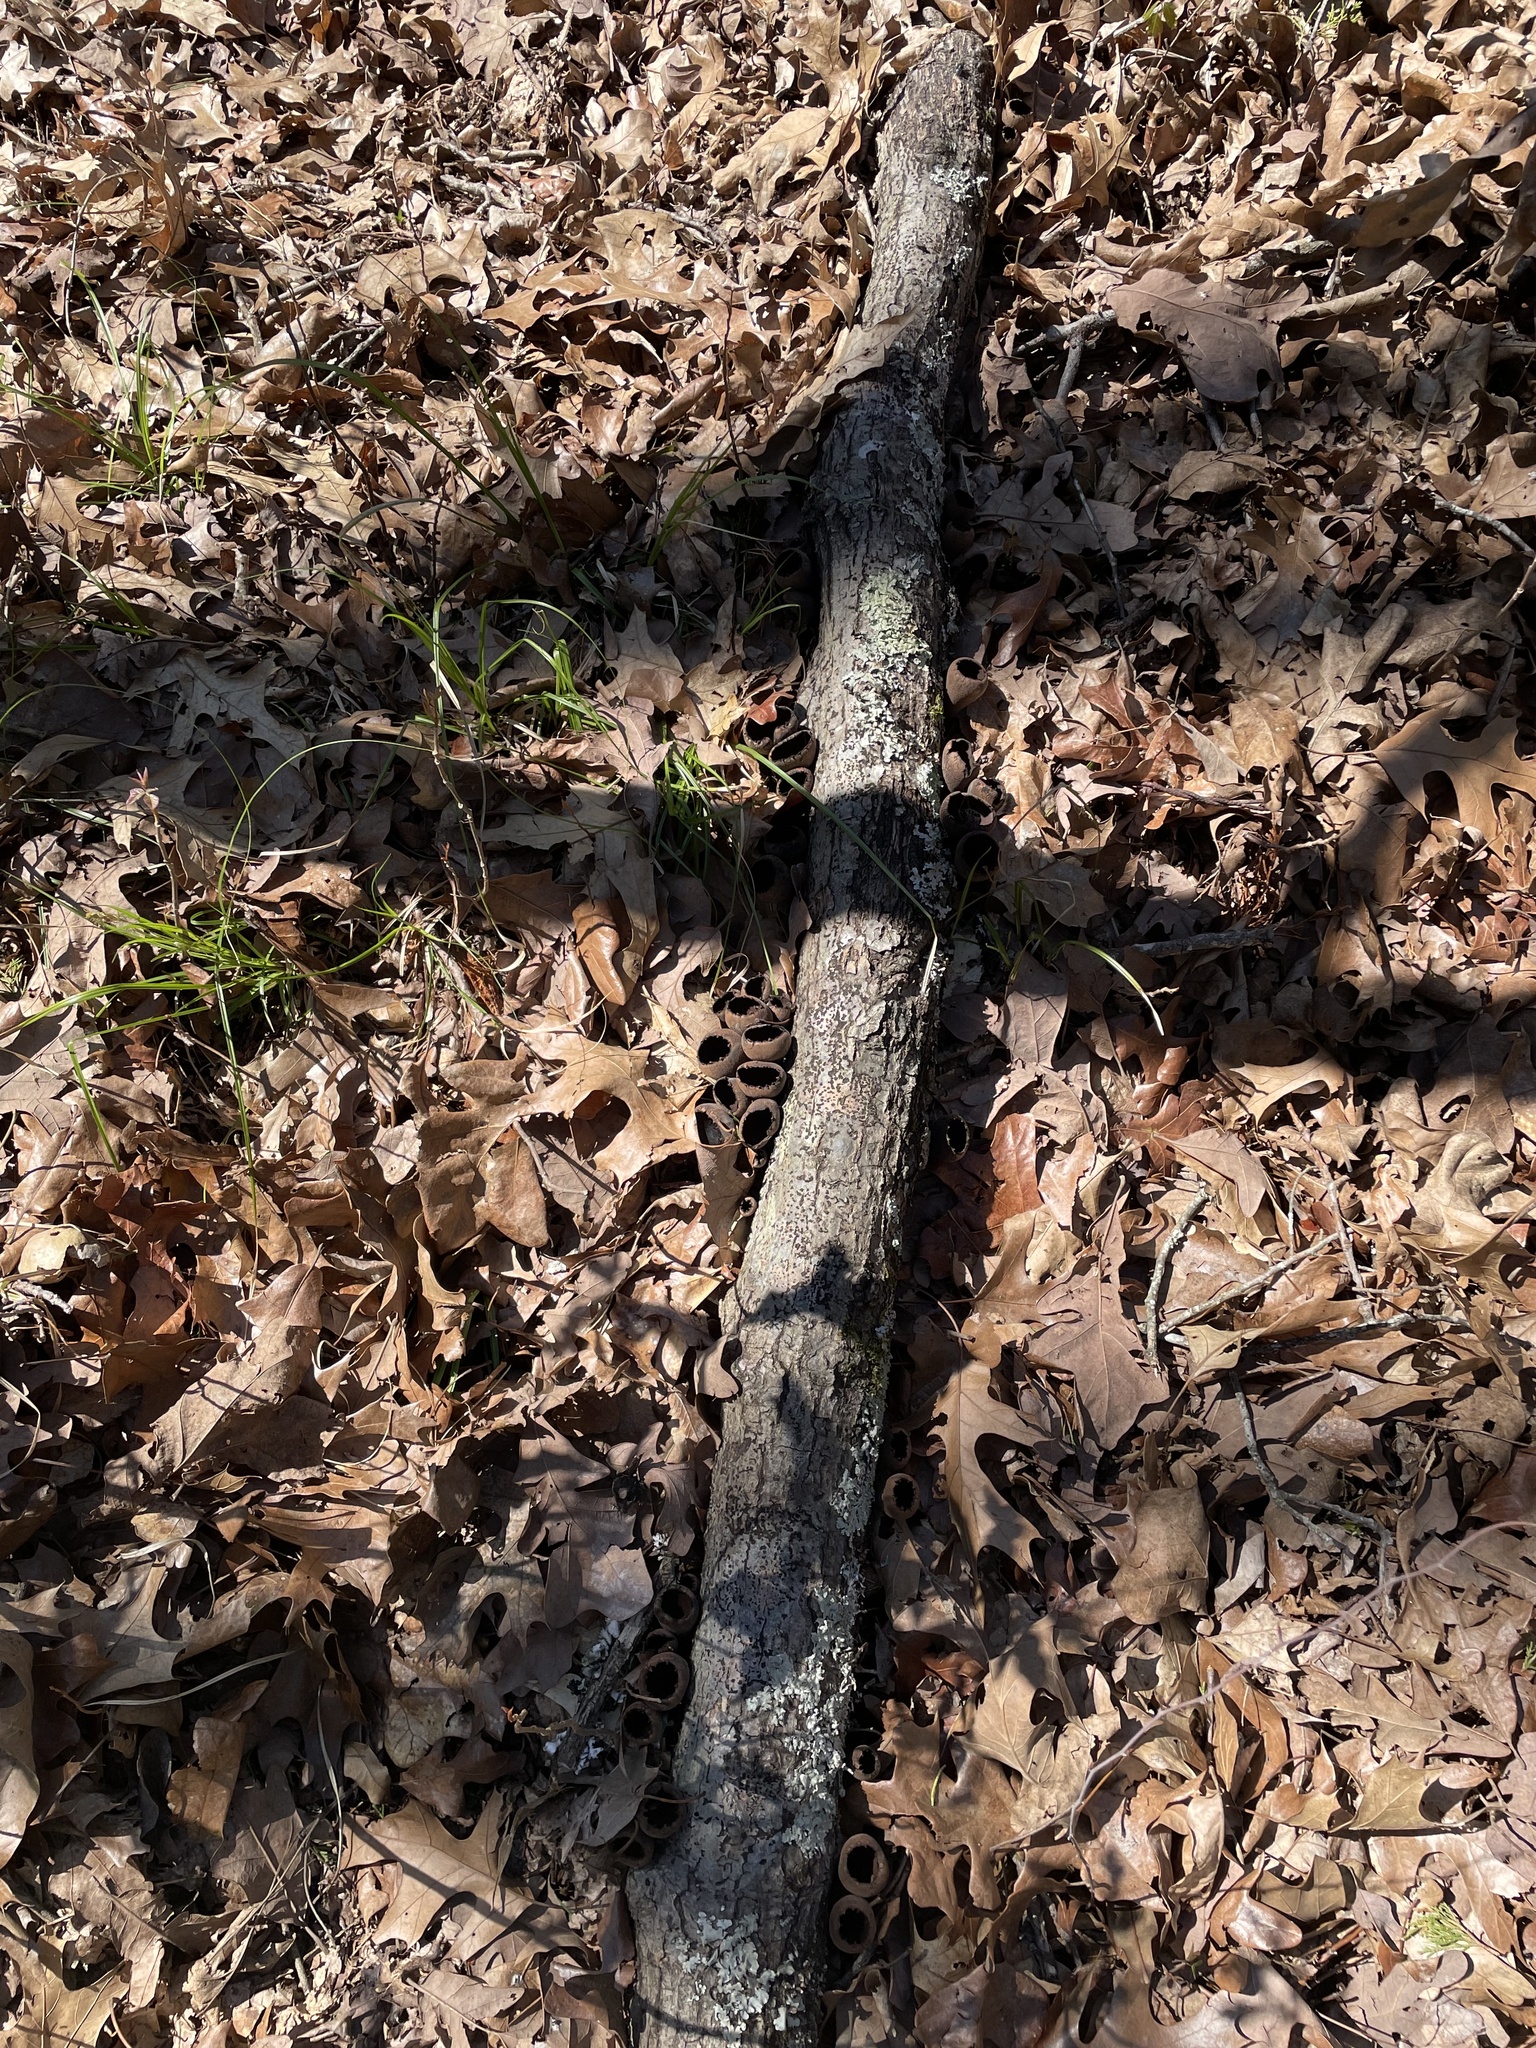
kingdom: Fungi
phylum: Ascomycota
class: Pezizomycetes
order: Pezizales
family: Sarcosomataceae
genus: Urnula
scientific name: Urnula craterium
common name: Devil's urn
